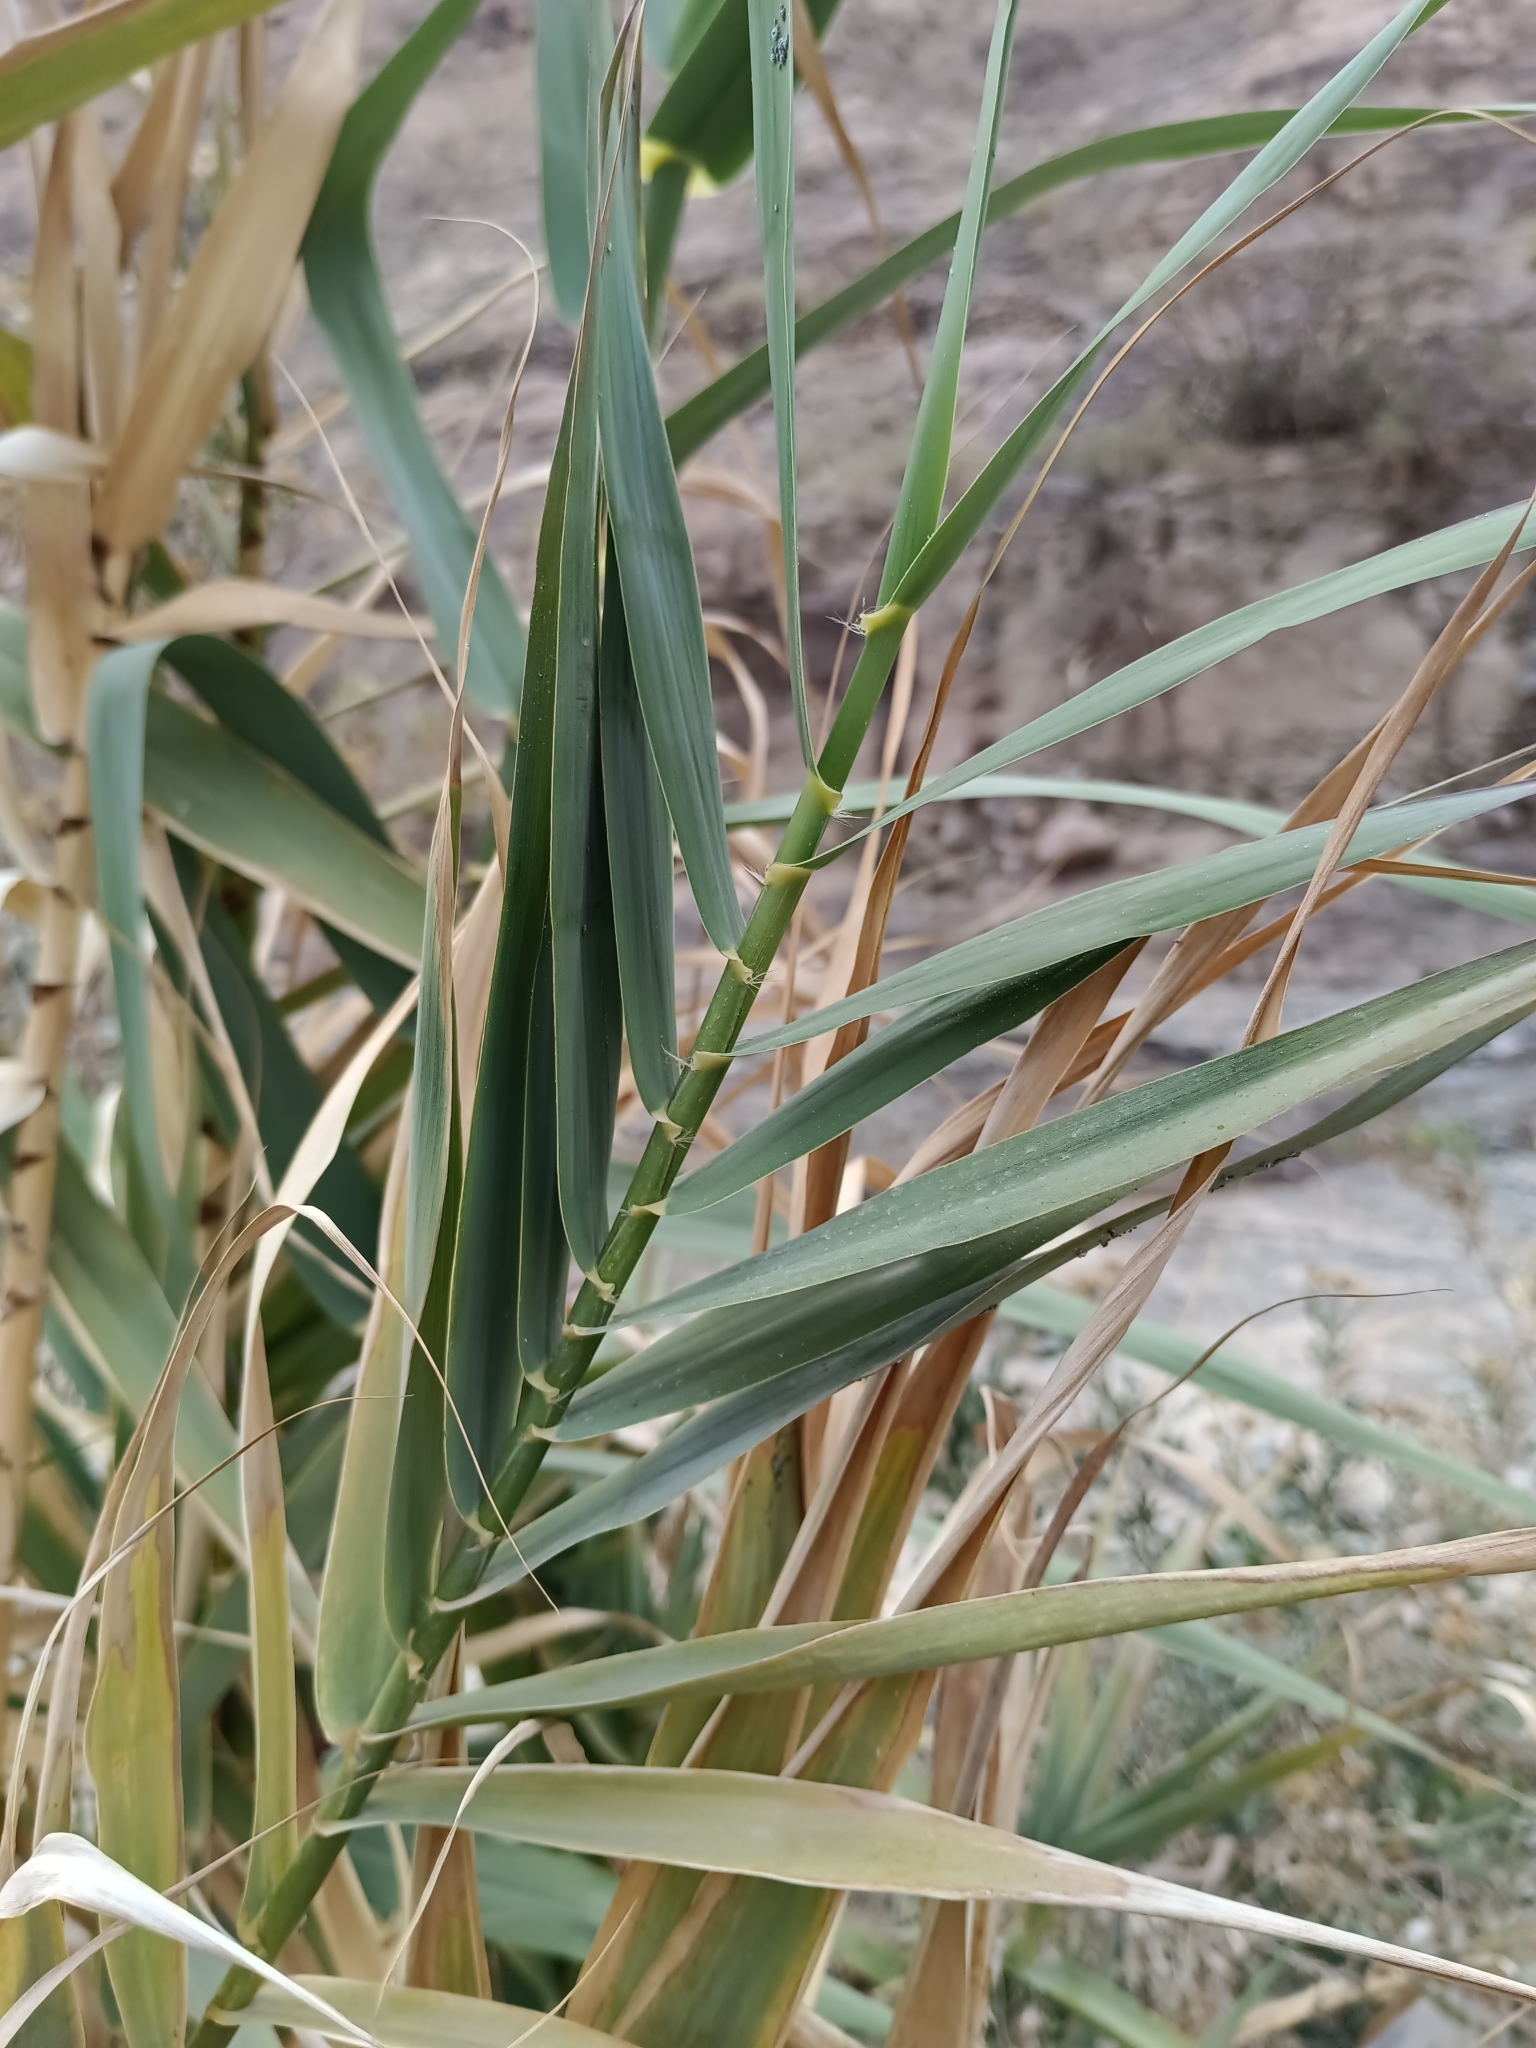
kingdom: Plantae
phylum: Tracheophyta
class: Liliopsida
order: Poales
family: Poaceae
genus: Arundo
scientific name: Arundo donax
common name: Giant reed
